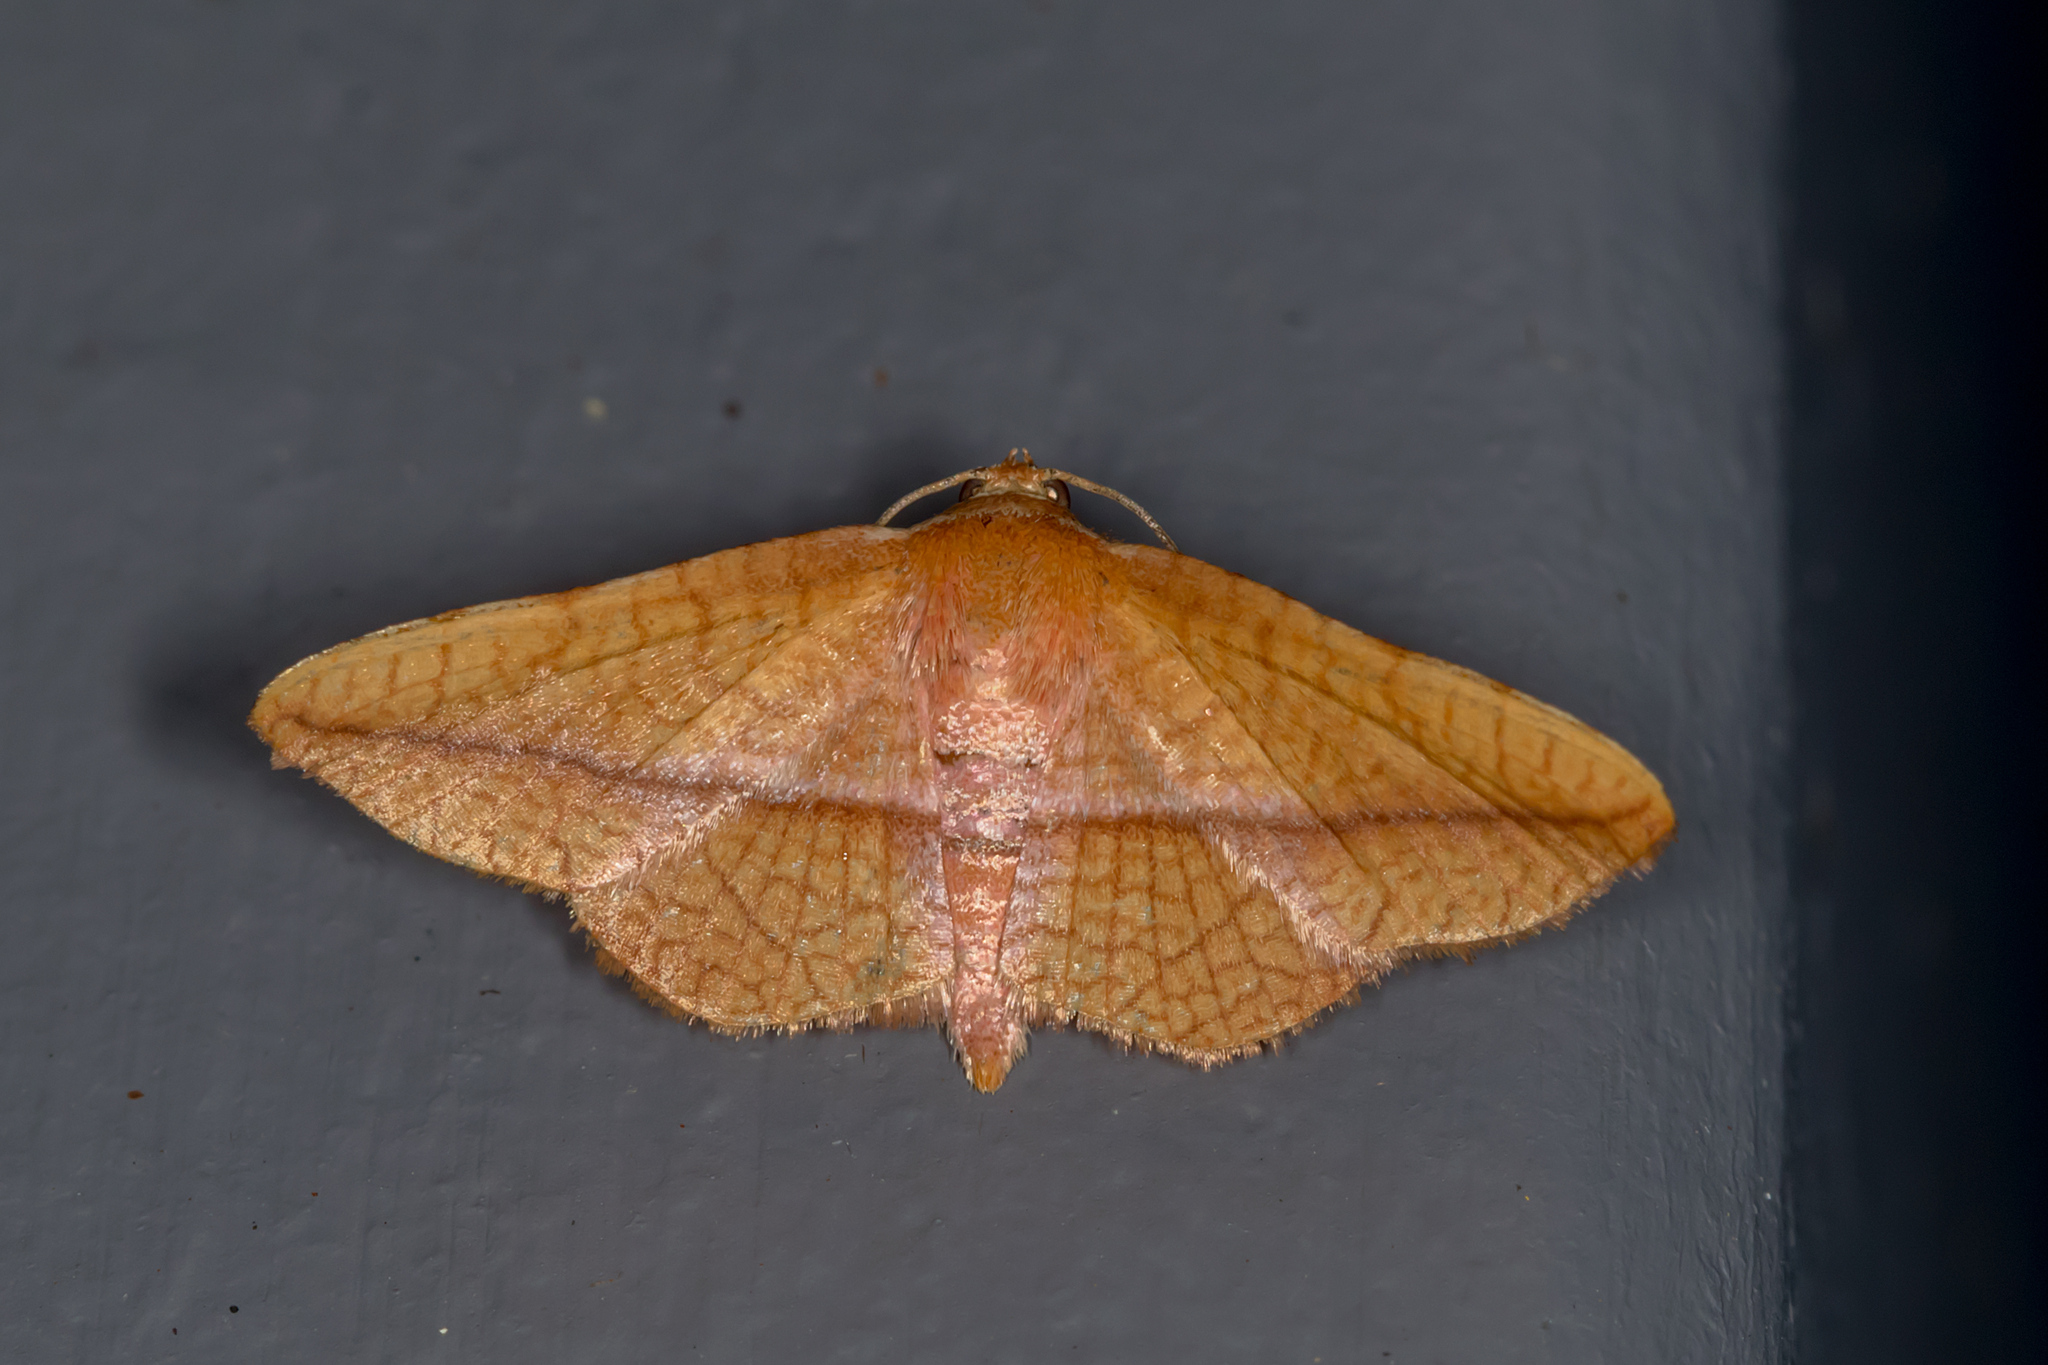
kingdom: Animalia
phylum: Arthropoda
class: Insecta
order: Lepidoptera
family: Thyrididae
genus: Aglaopus
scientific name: Aglaopus loxomita
